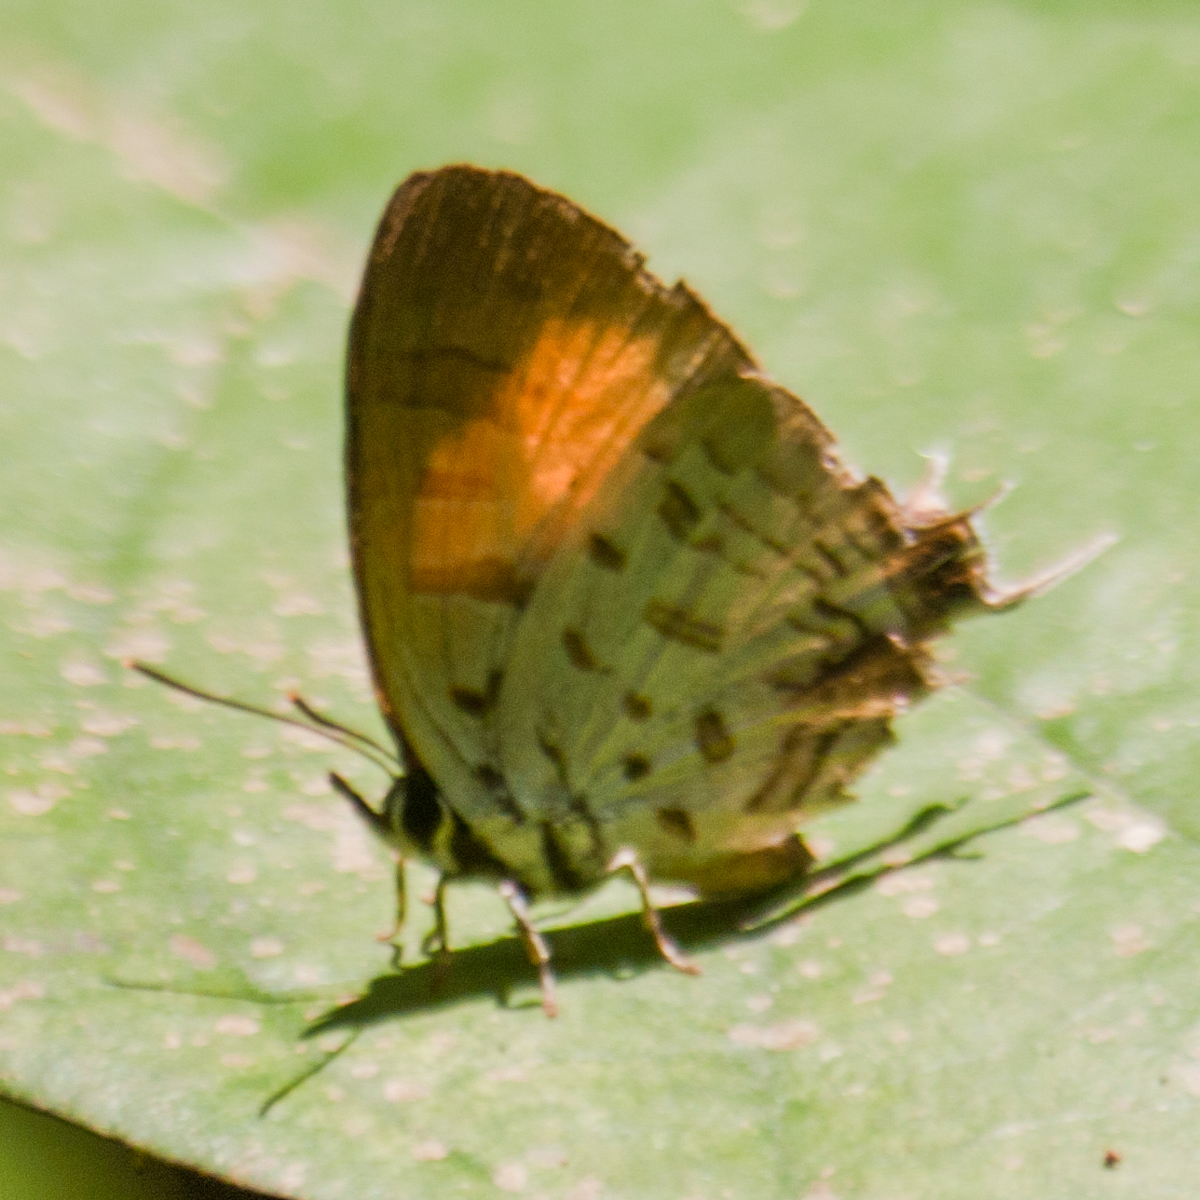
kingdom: Animalia
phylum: Arthropoda
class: Insecta
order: Lepidoptera
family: Lycaenidae
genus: Drupadia
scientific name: Drupadia theda
